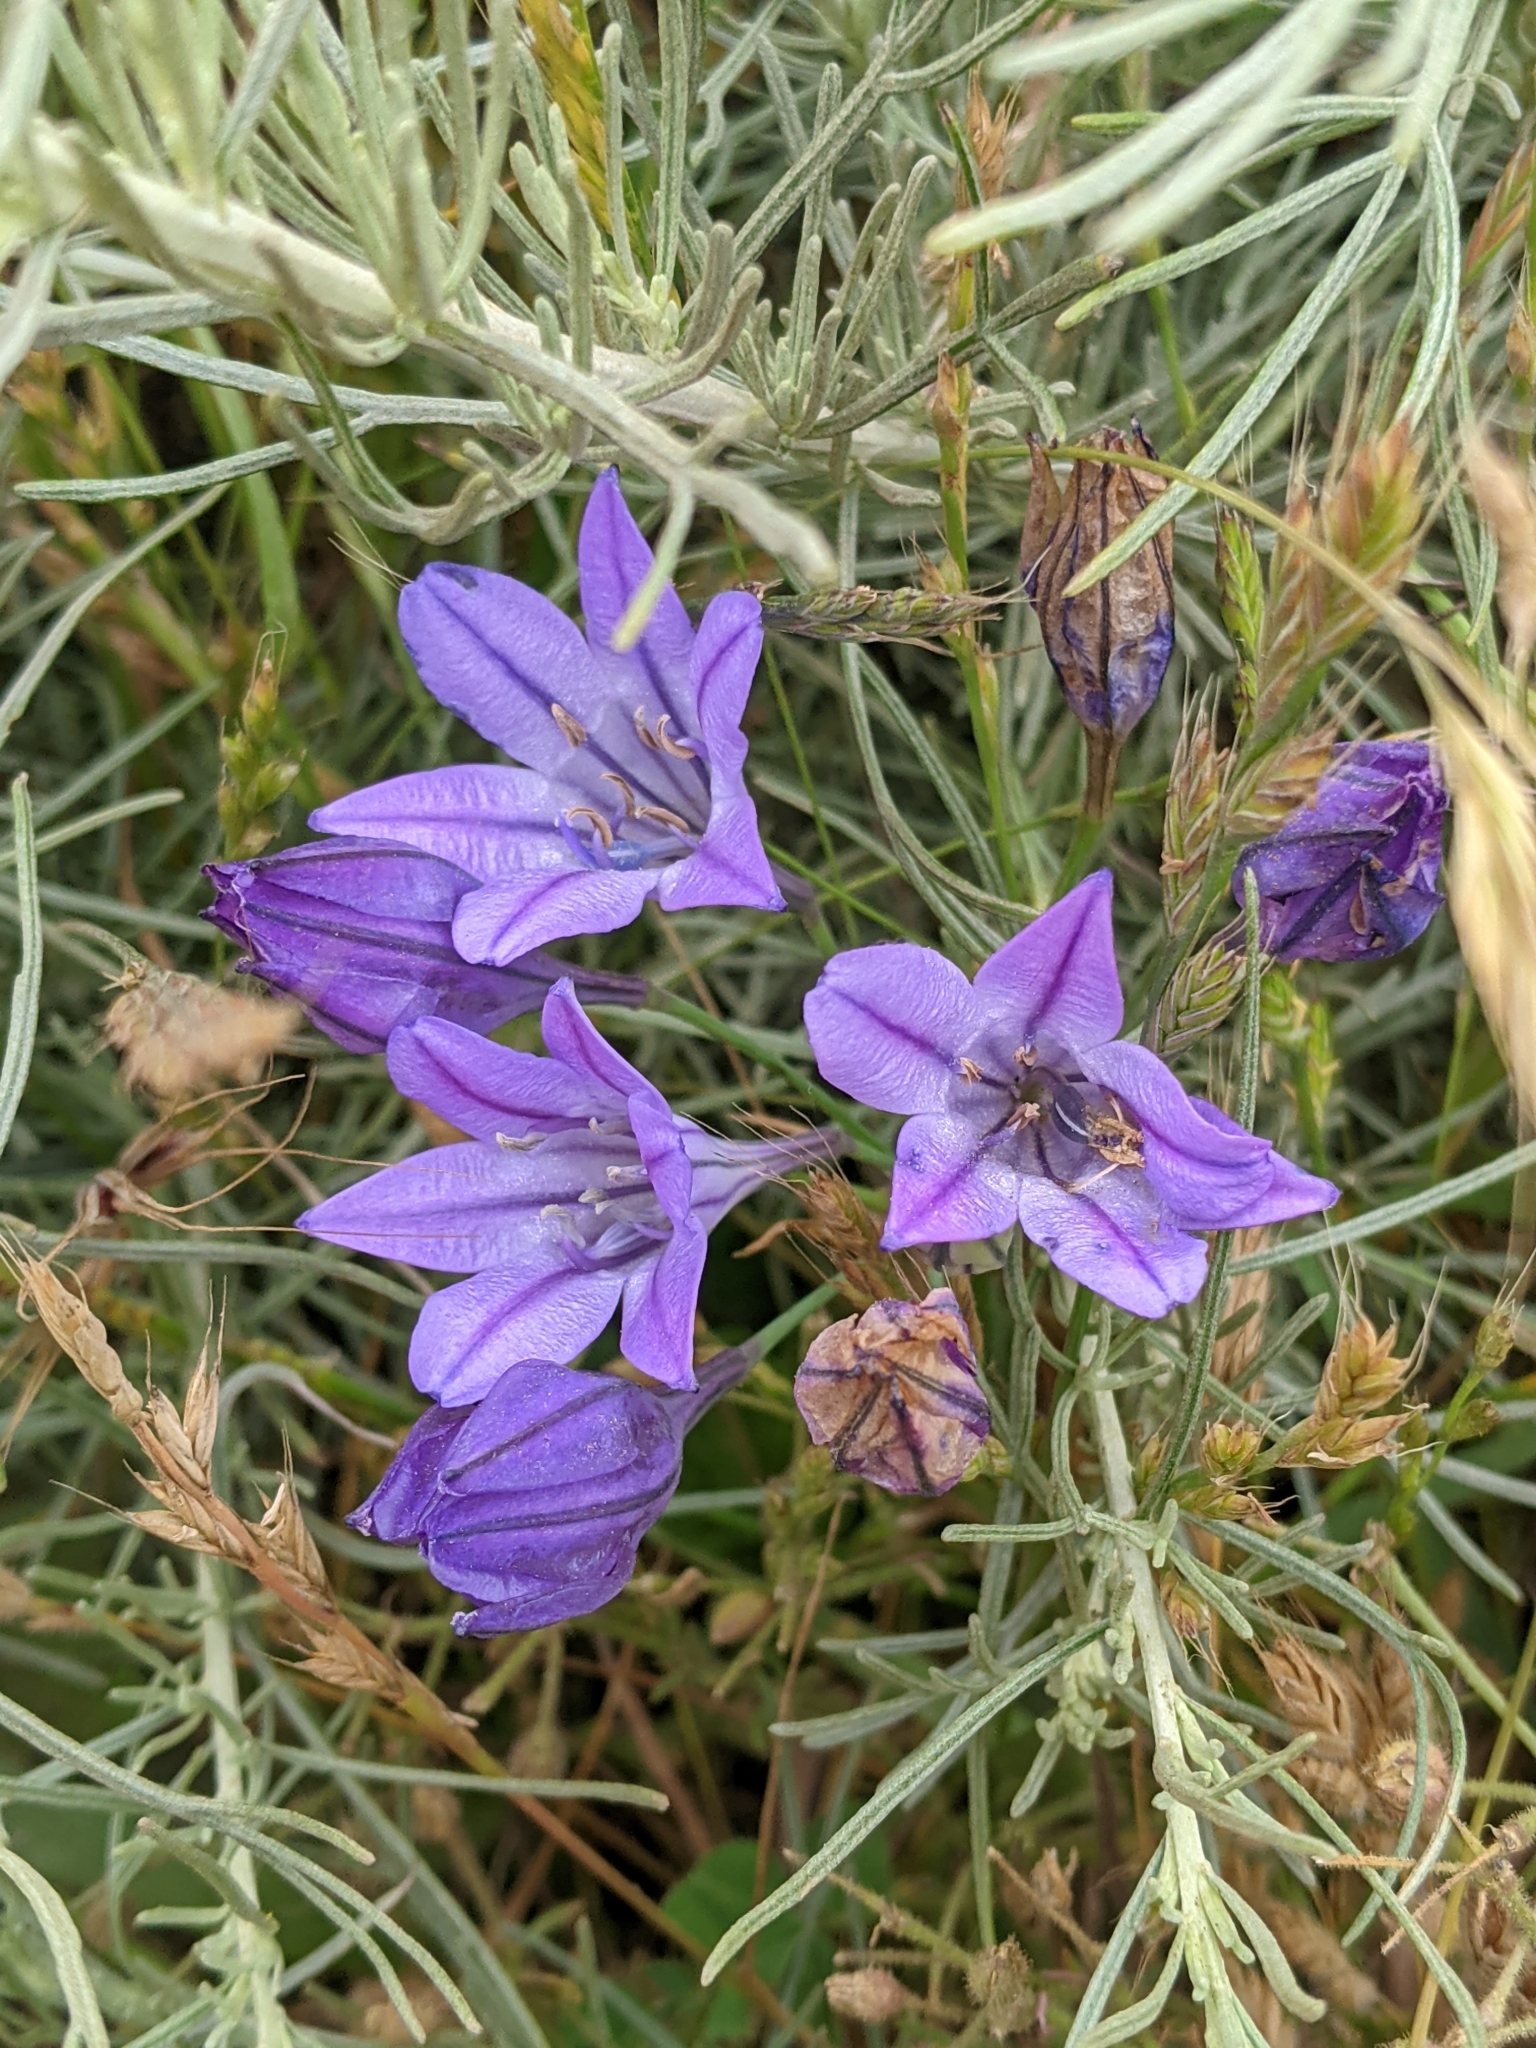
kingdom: Plantae
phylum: Tracheophyta
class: Liliopsida
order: Asparagales
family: Asparagaceae
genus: Triteleia
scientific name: Triteleia laxa
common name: Triplet-lily
